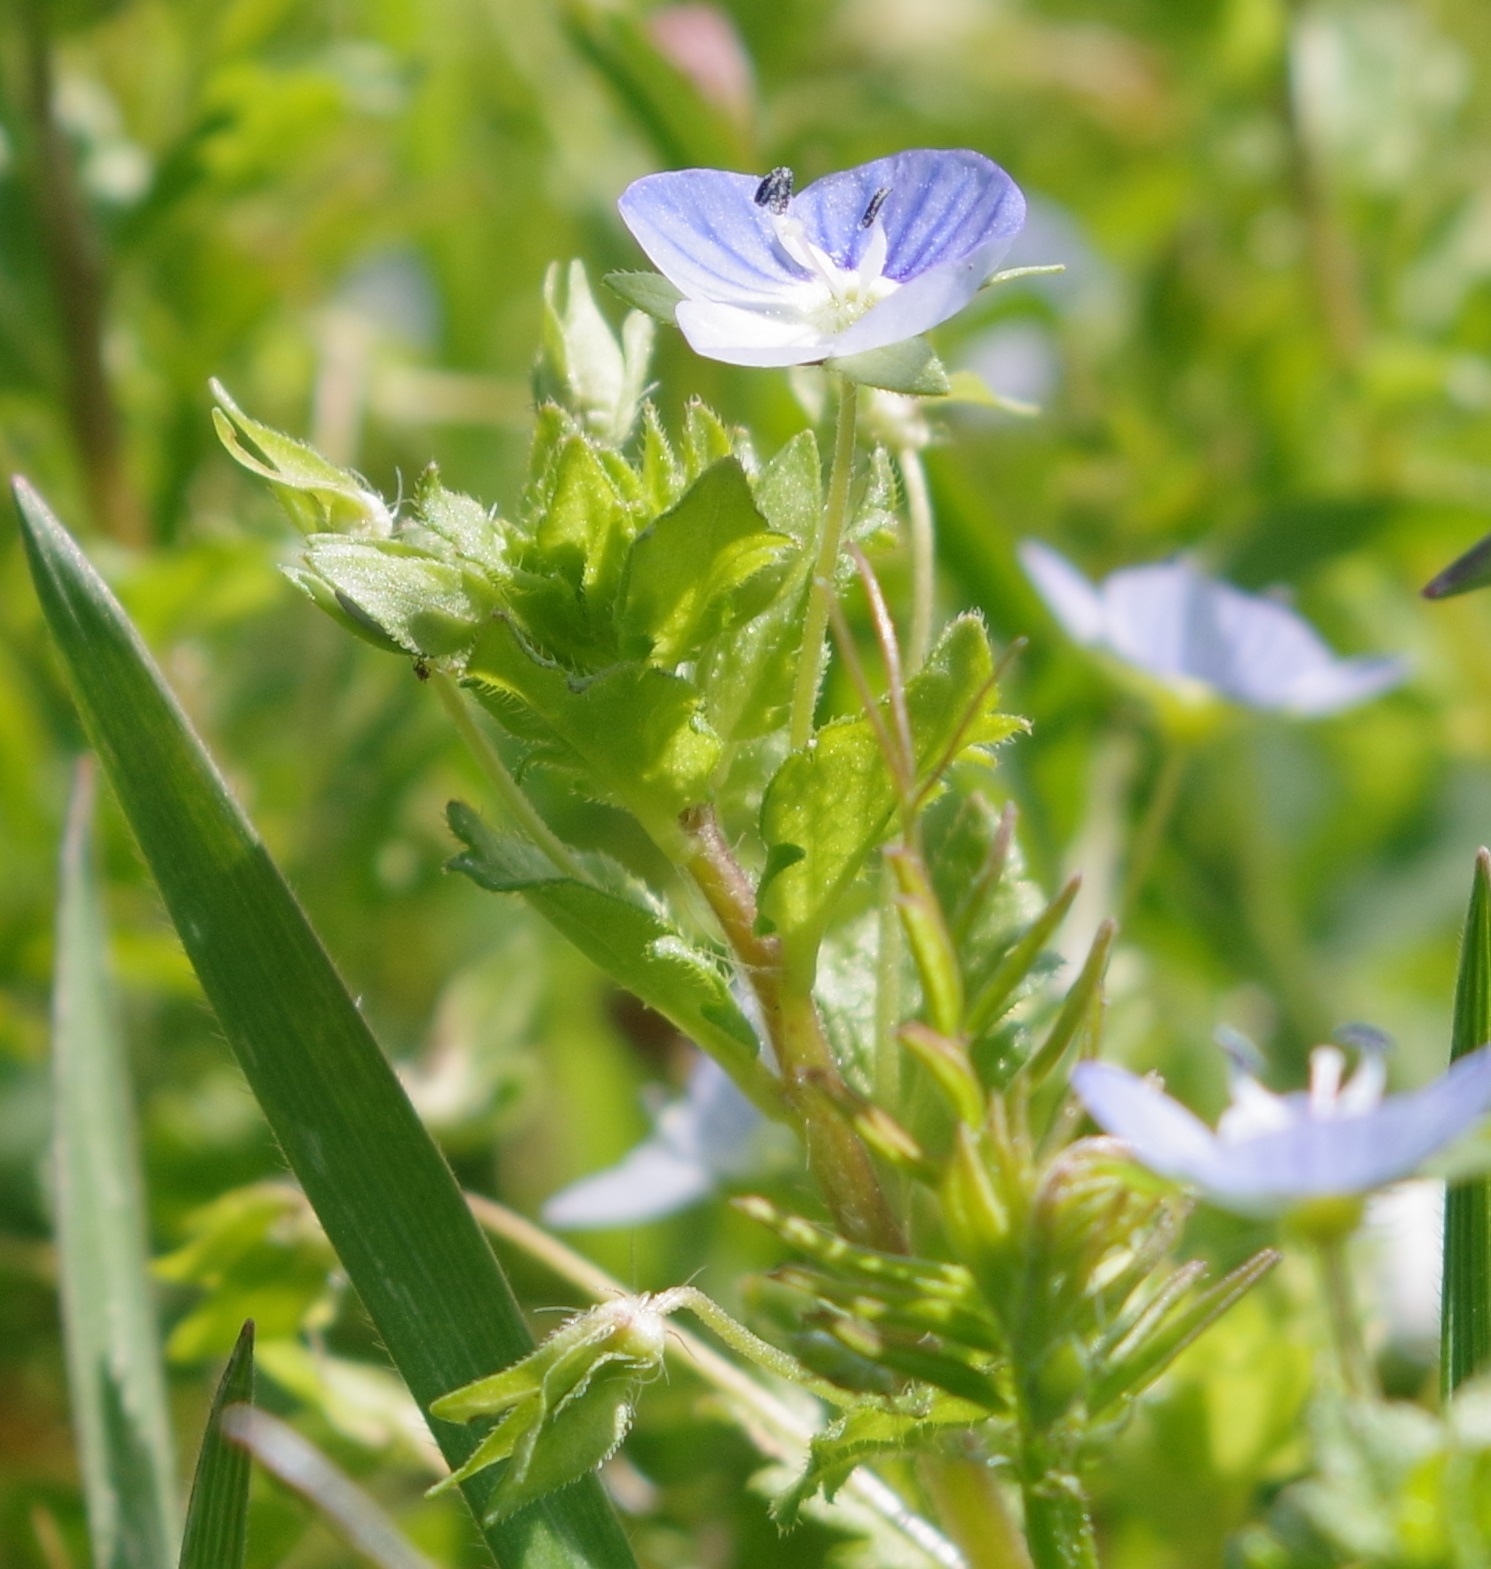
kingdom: Plantae
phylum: Tracheophyta
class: Magnoliopsida
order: Lamiales
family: Plantaginaceae
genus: Veronica
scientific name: Veronica persica
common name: Common field-speedwell
